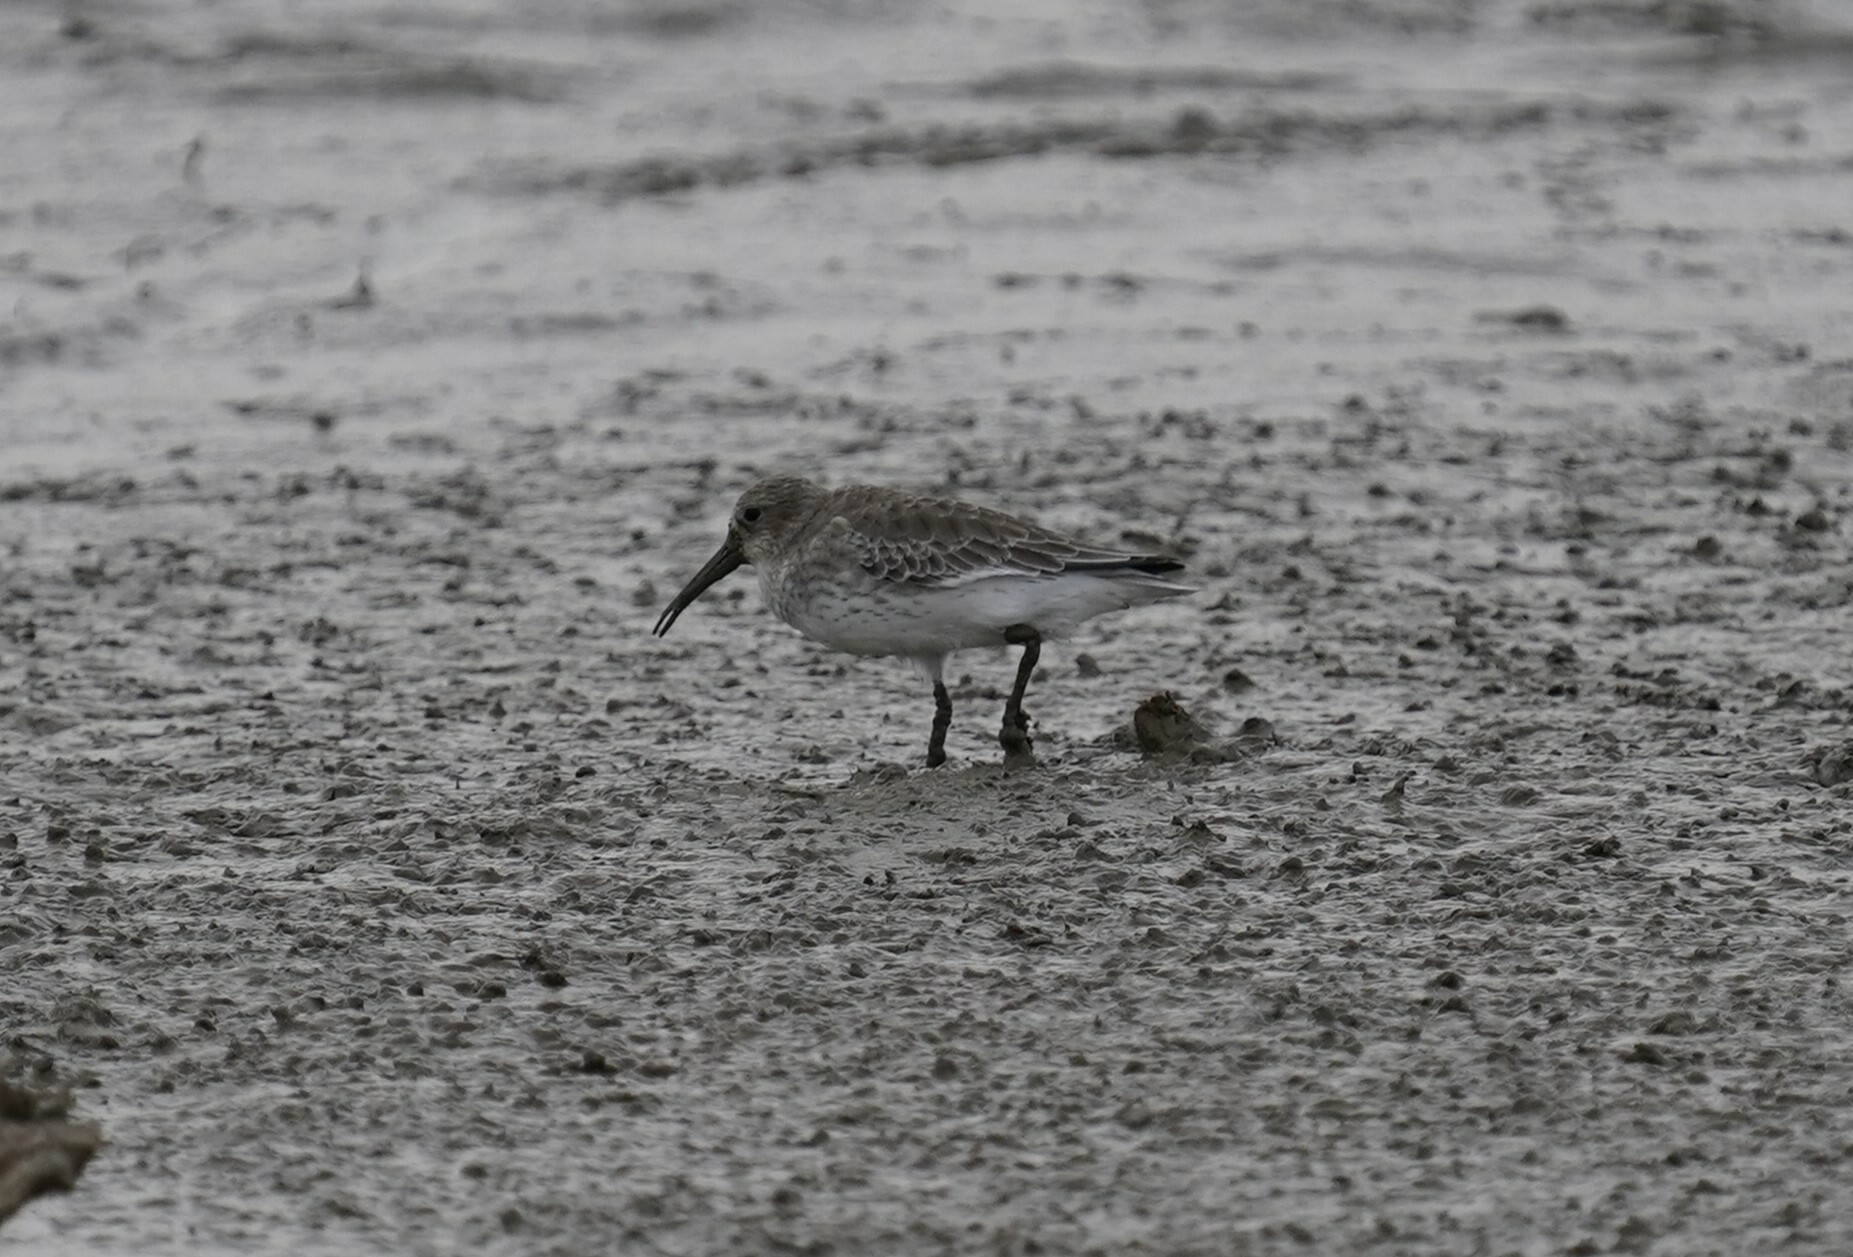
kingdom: Animalia
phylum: Chordata
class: Aves
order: Charadriiformes
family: Scolopacidae
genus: Calidris
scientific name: Calidris alpina
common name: Dunlin
